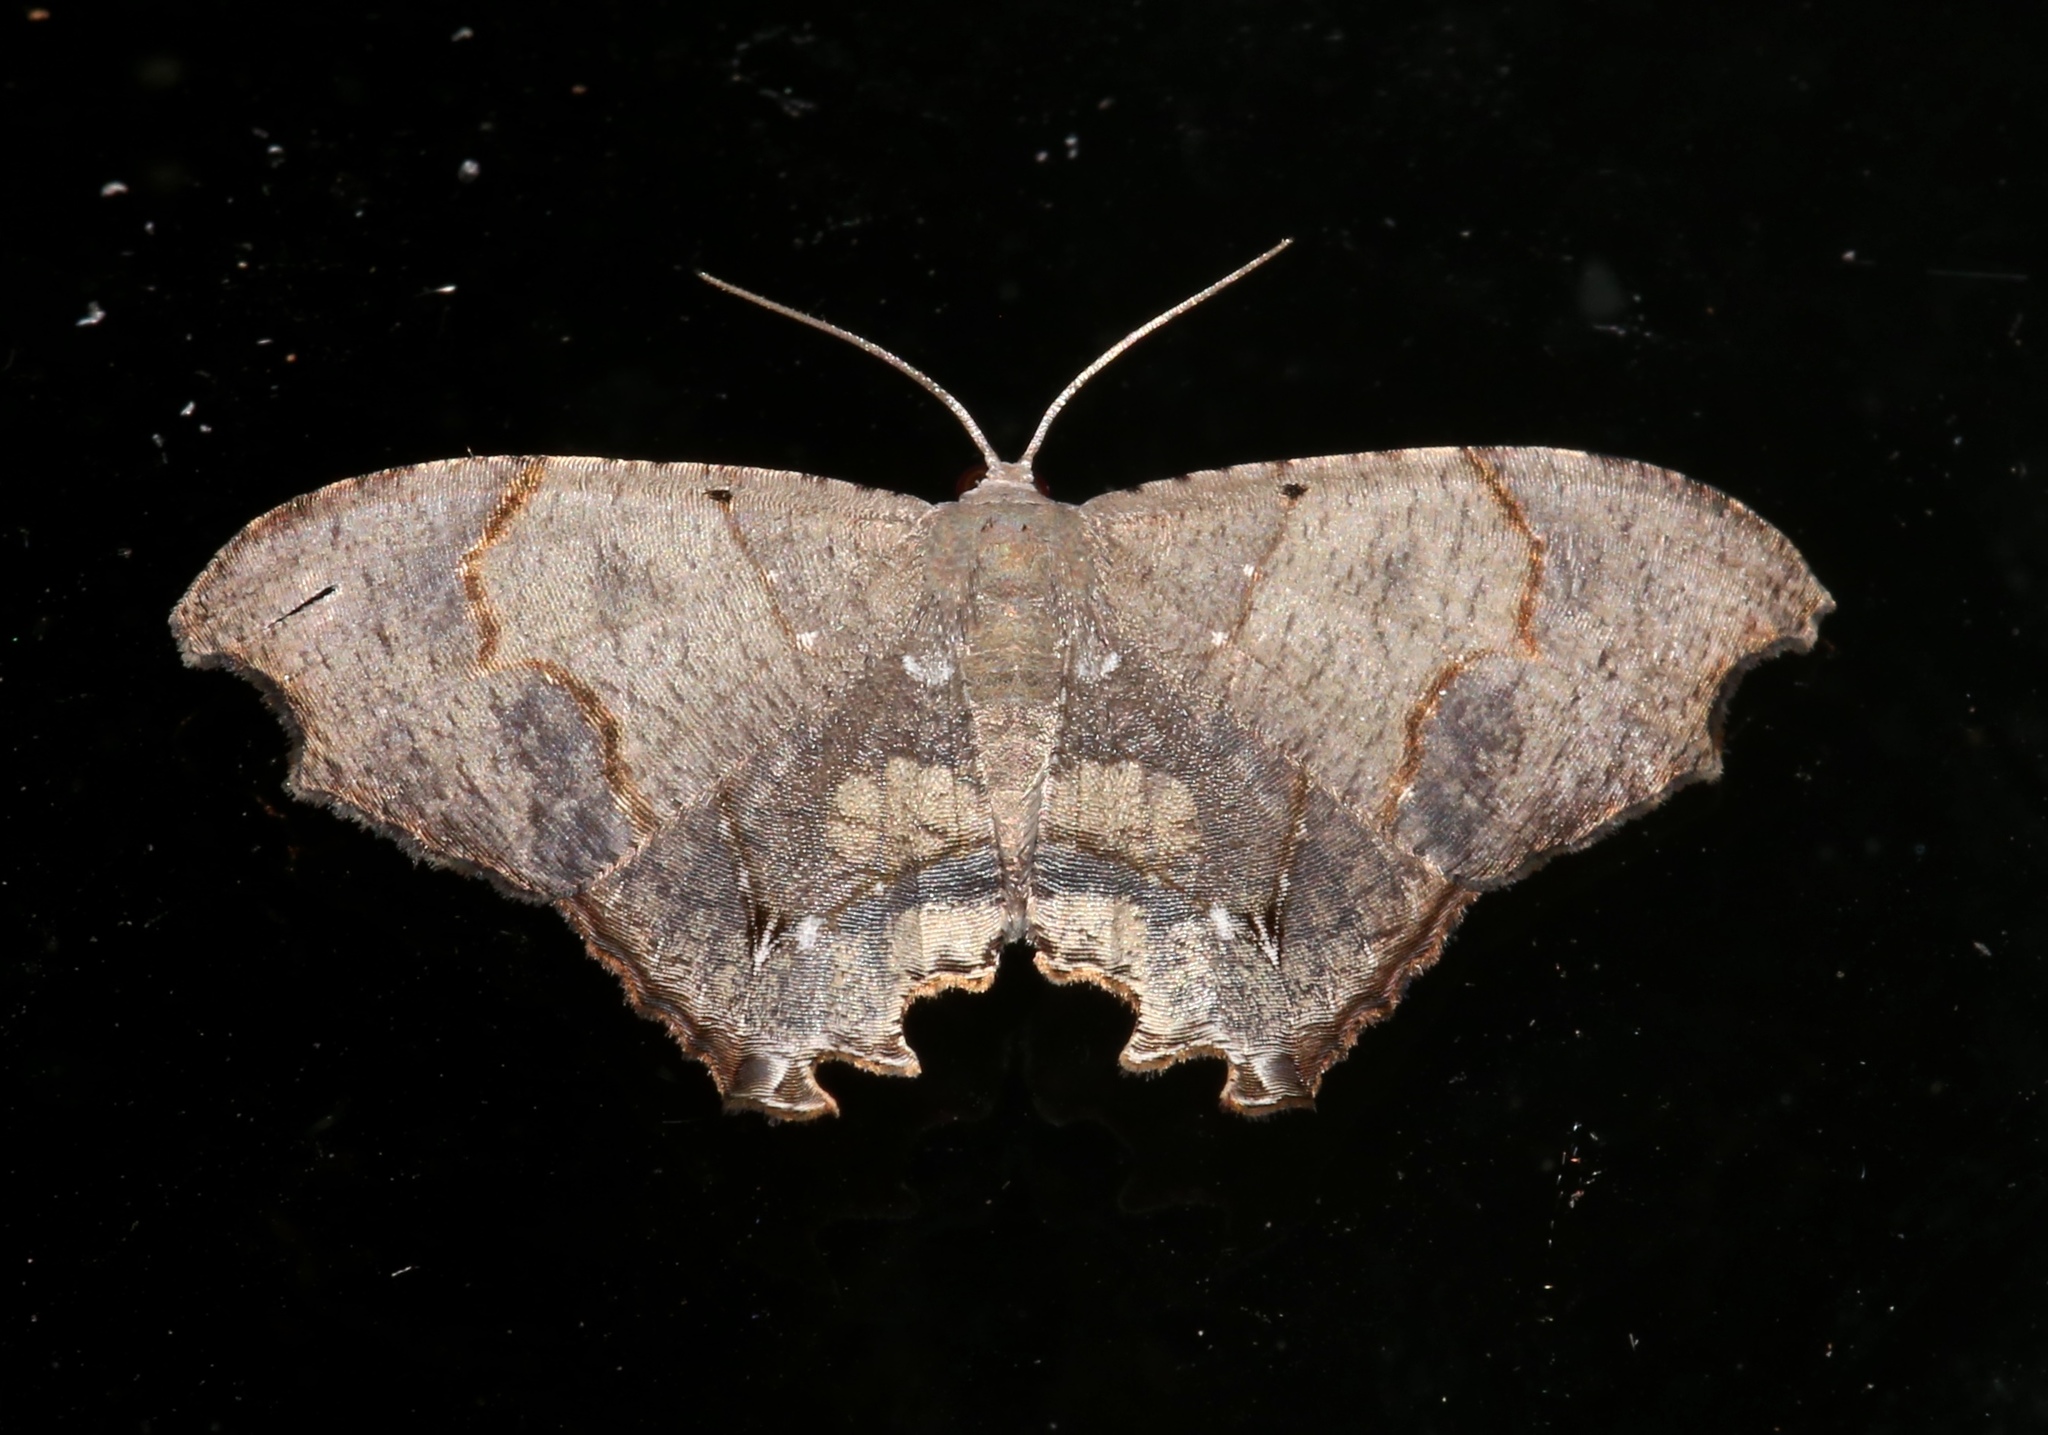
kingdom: Animalia
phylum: Arthropoda
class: Insecta
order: Lepidoptera
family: Uraniidae
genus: Trotorhombia
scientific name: Trotorhombia metachromata
